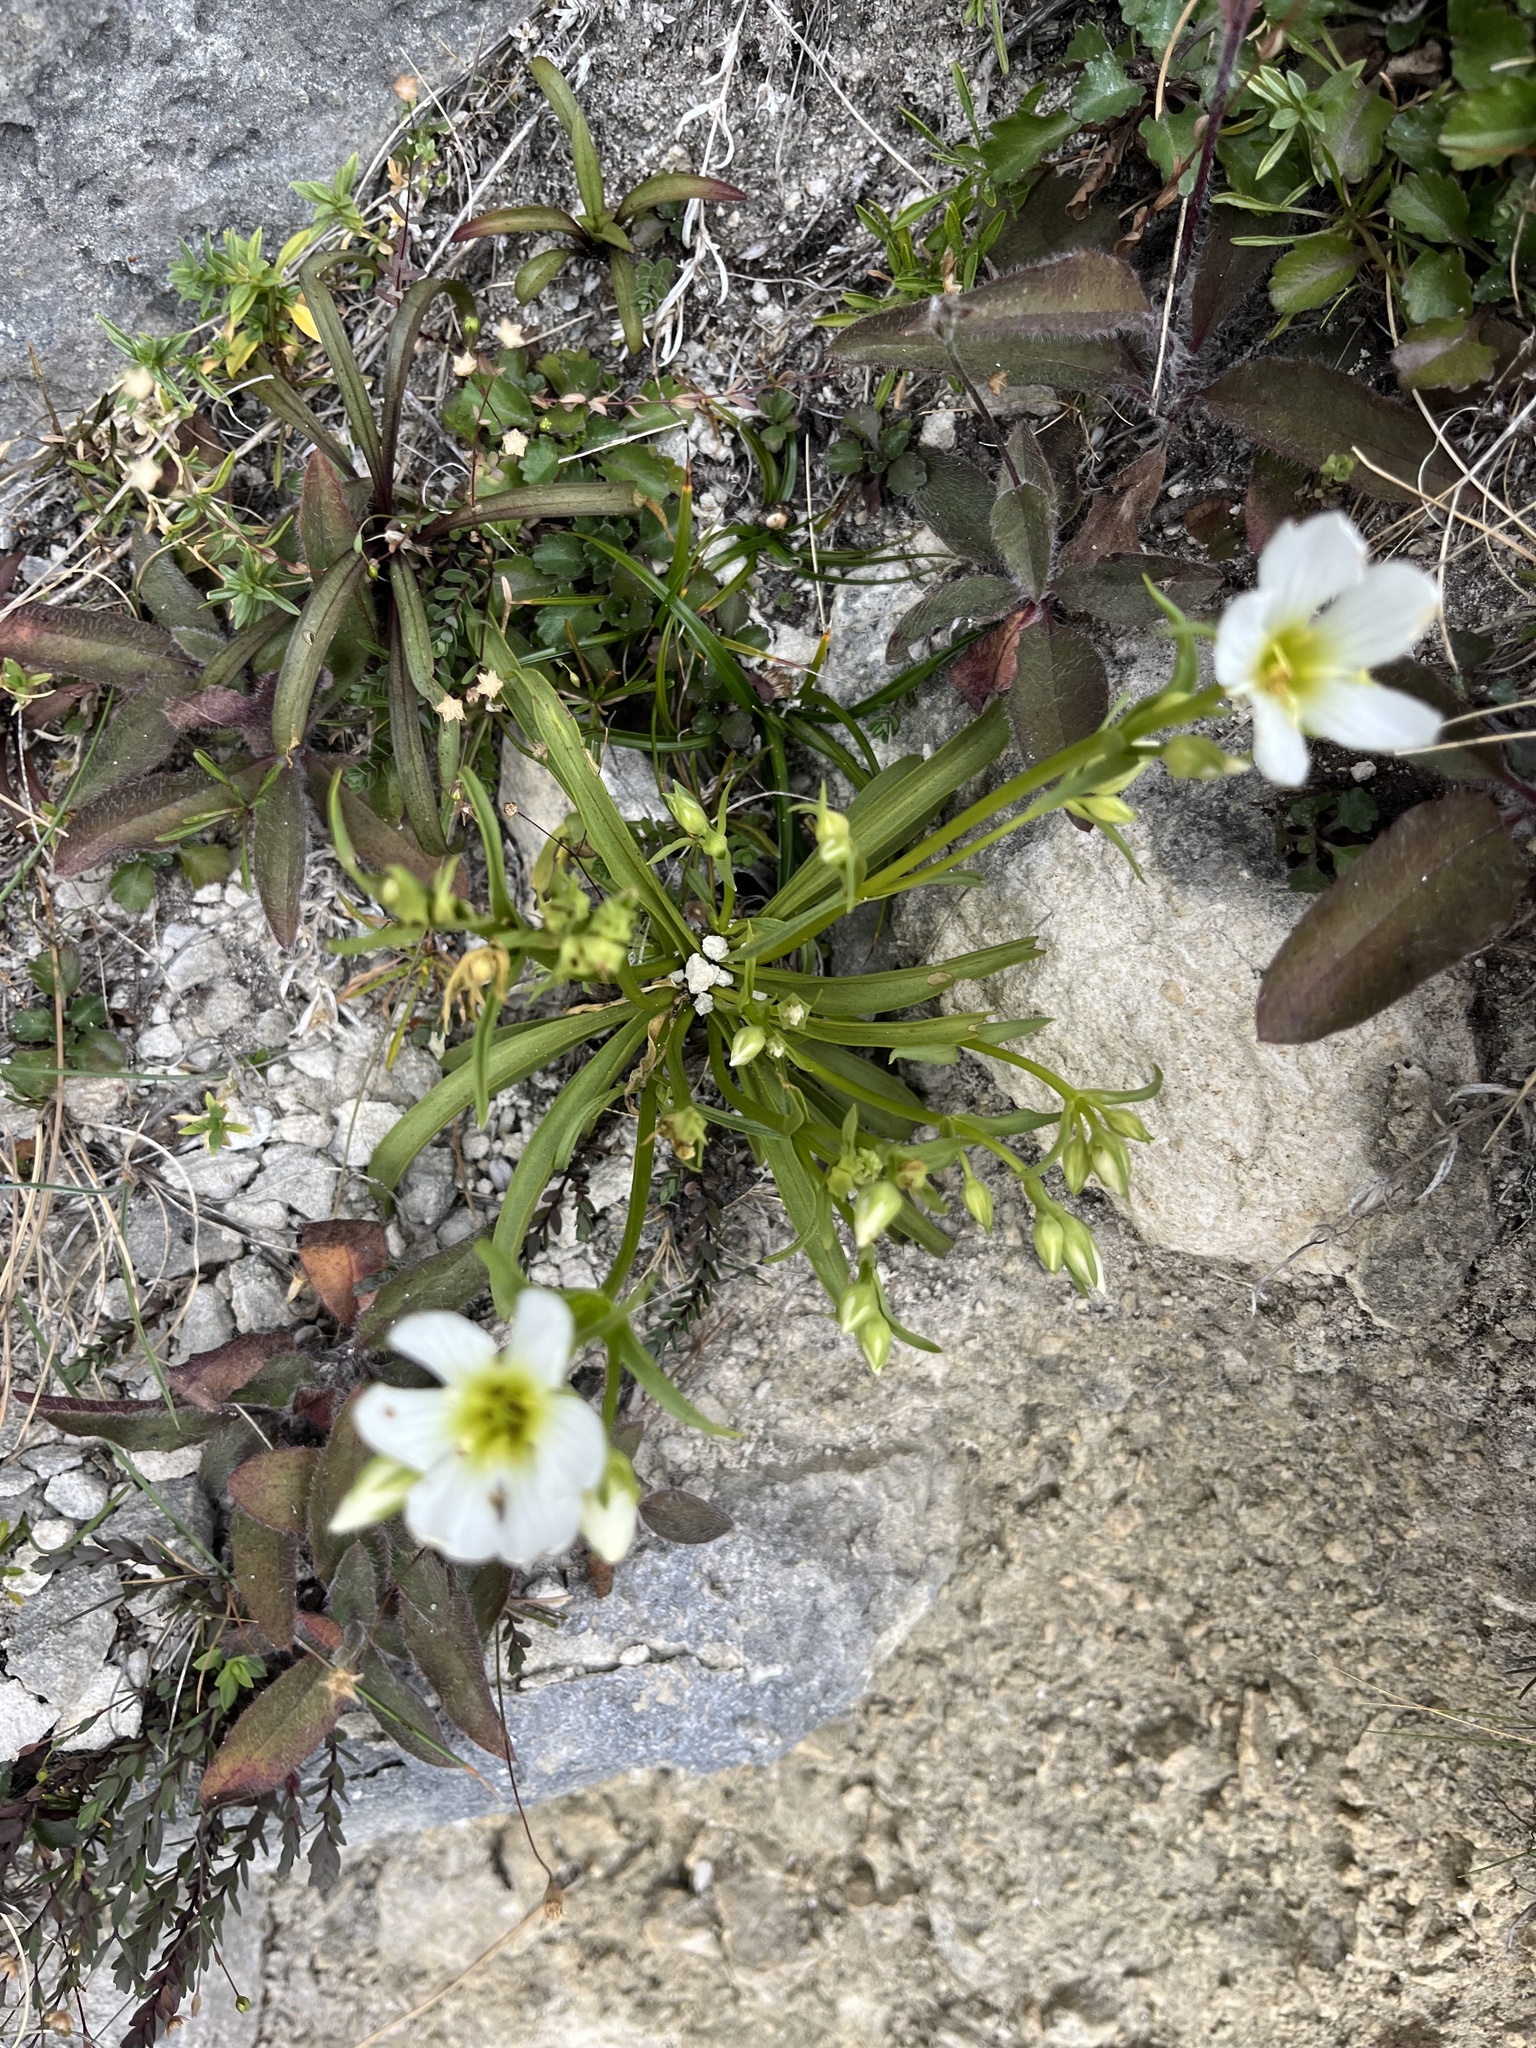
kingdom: Plantae
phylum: Tracheophyta
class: Magnoliopsida
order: Gentianales
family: Gentianaceae
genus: Gentianella
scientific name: Gentianella bellidifolia
